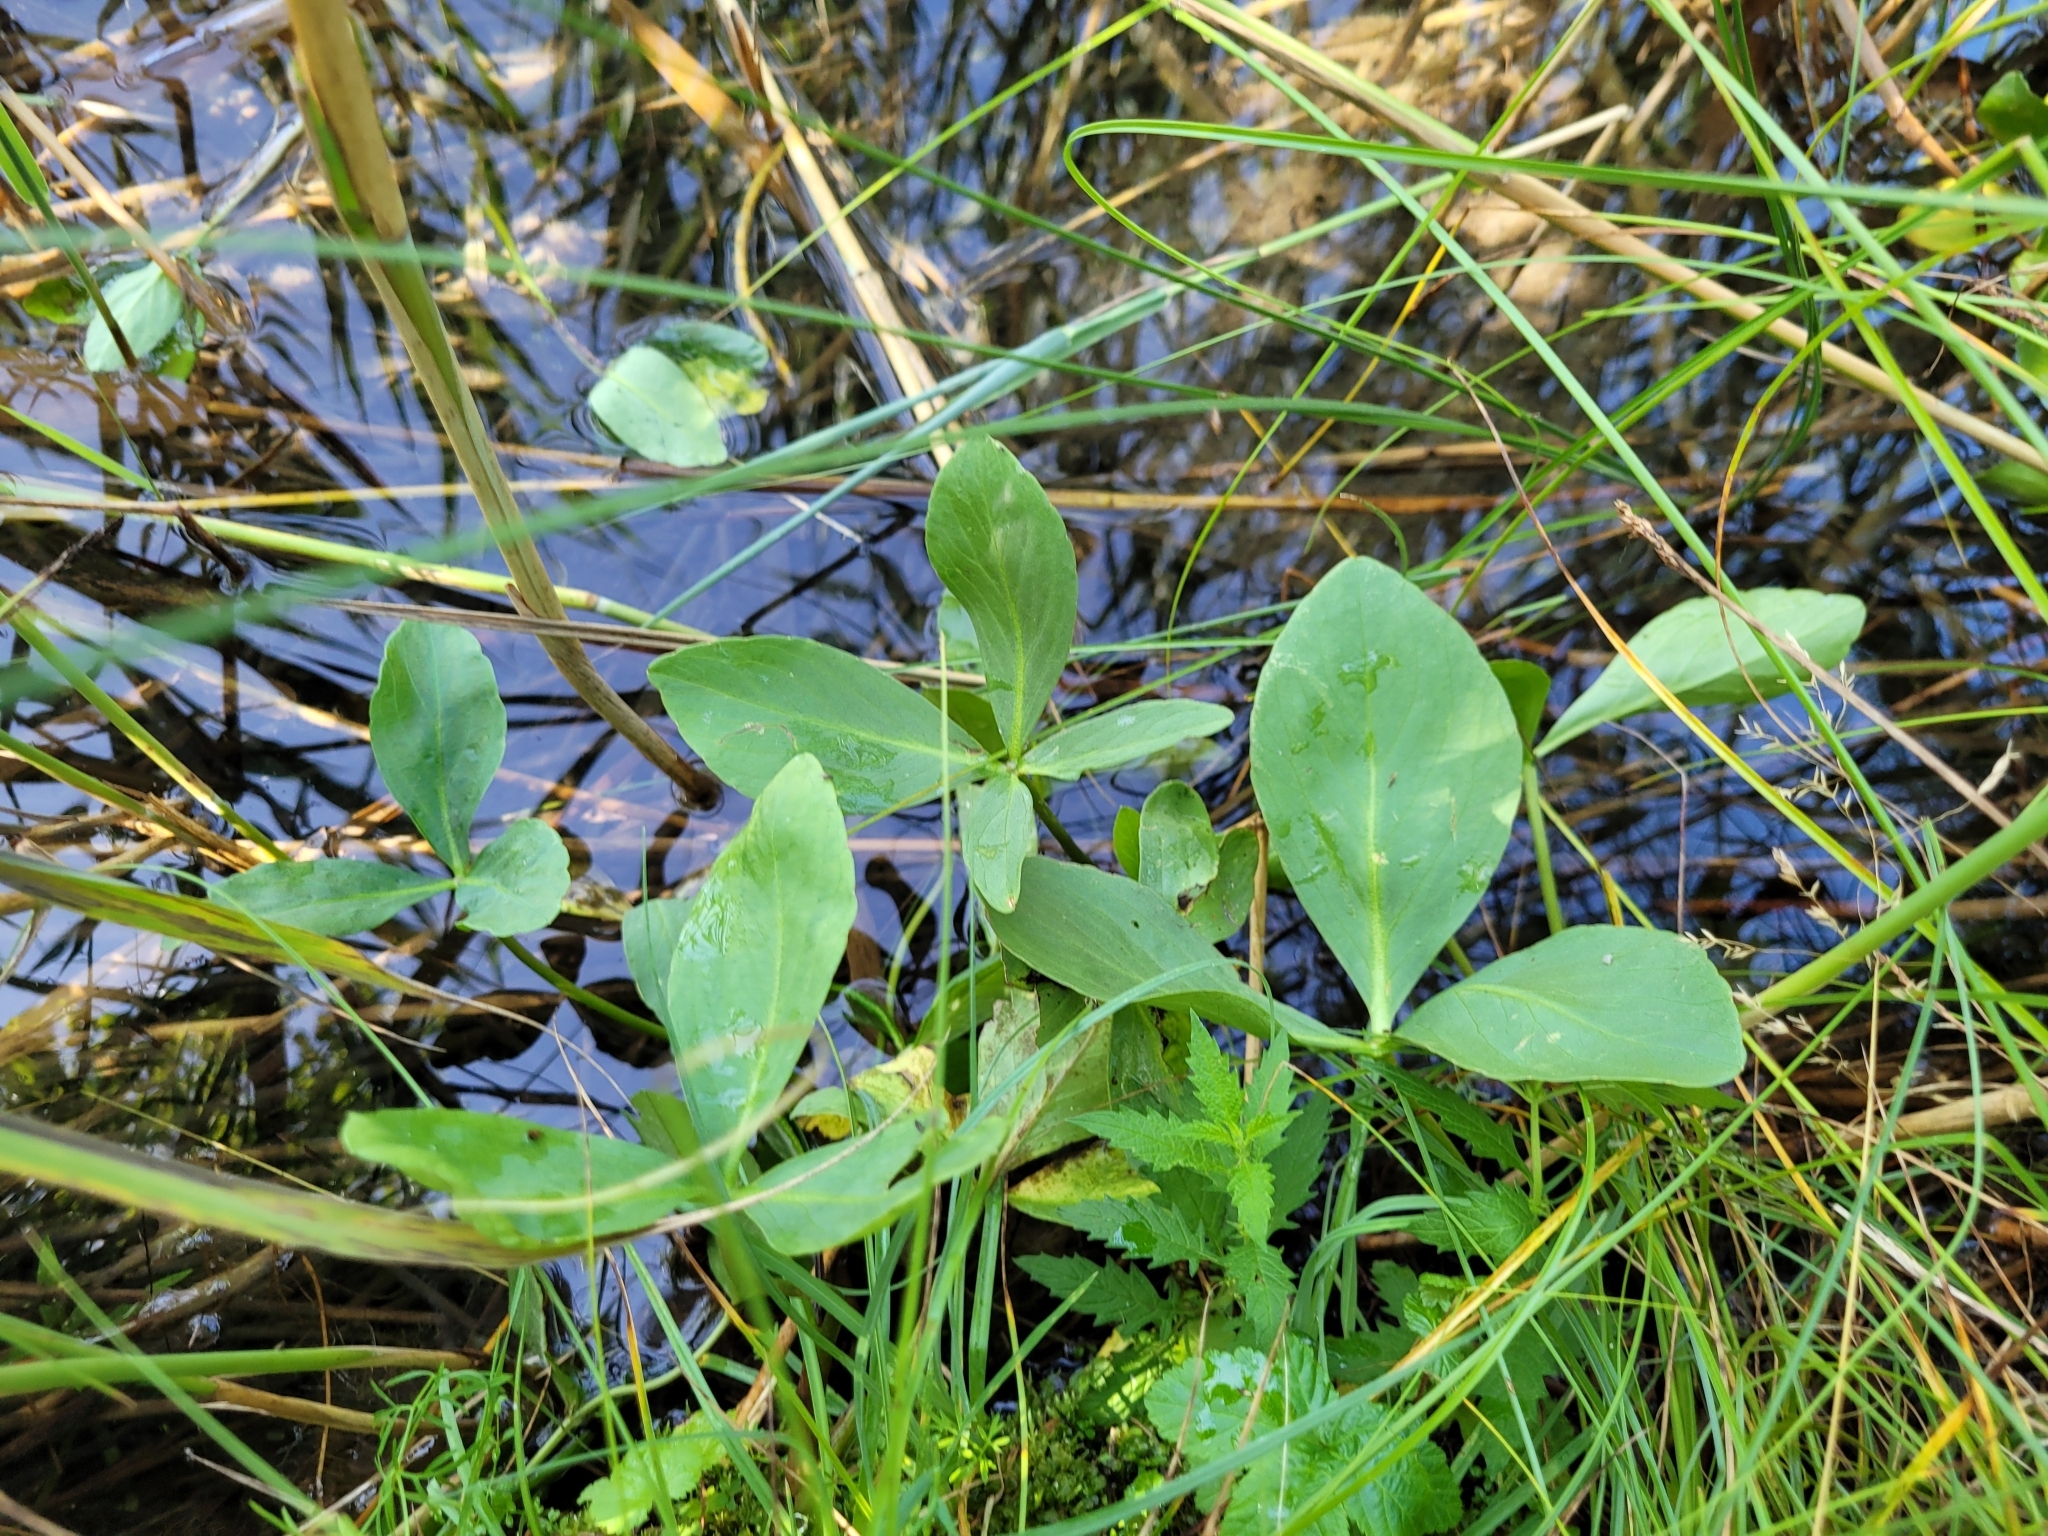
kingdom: Plantae
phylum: Tracheophyta
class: Magnoliopsida
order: Asterales
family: Menyanthaceae
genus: Menyanthes
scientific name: Menyanthes trifoliata
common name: Bogbean
